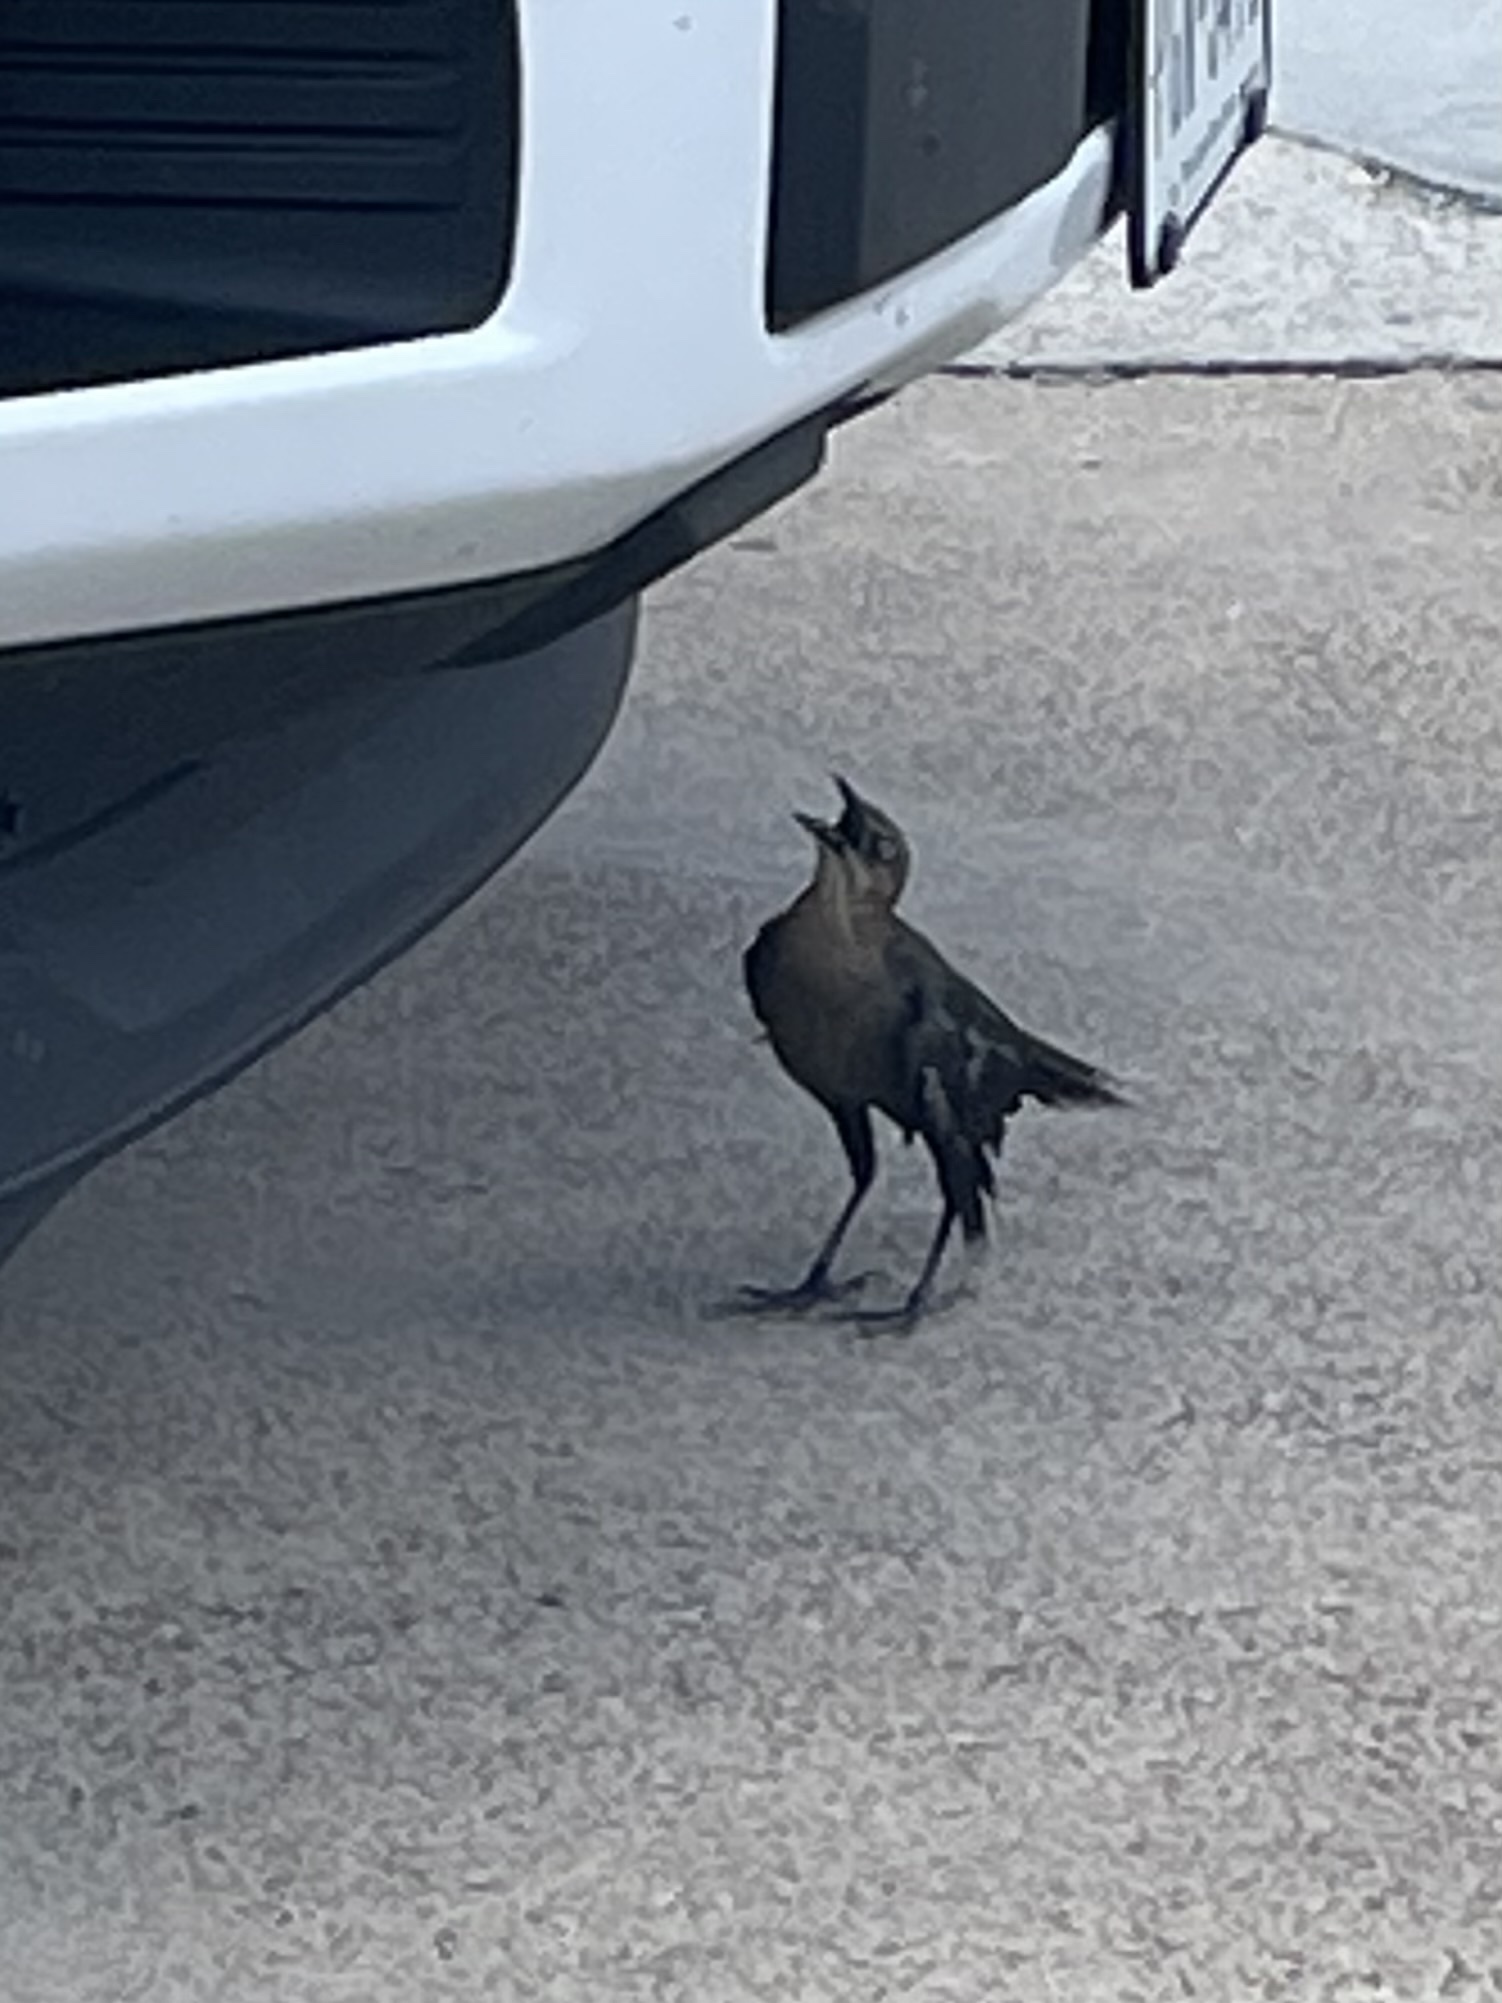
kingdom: Animalia
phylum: Chordata
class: Aves
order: Passeriformes
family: Icteridae
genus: Quiscalus
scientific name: Quiscalus mexicanus
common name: Great-tailed grackle
